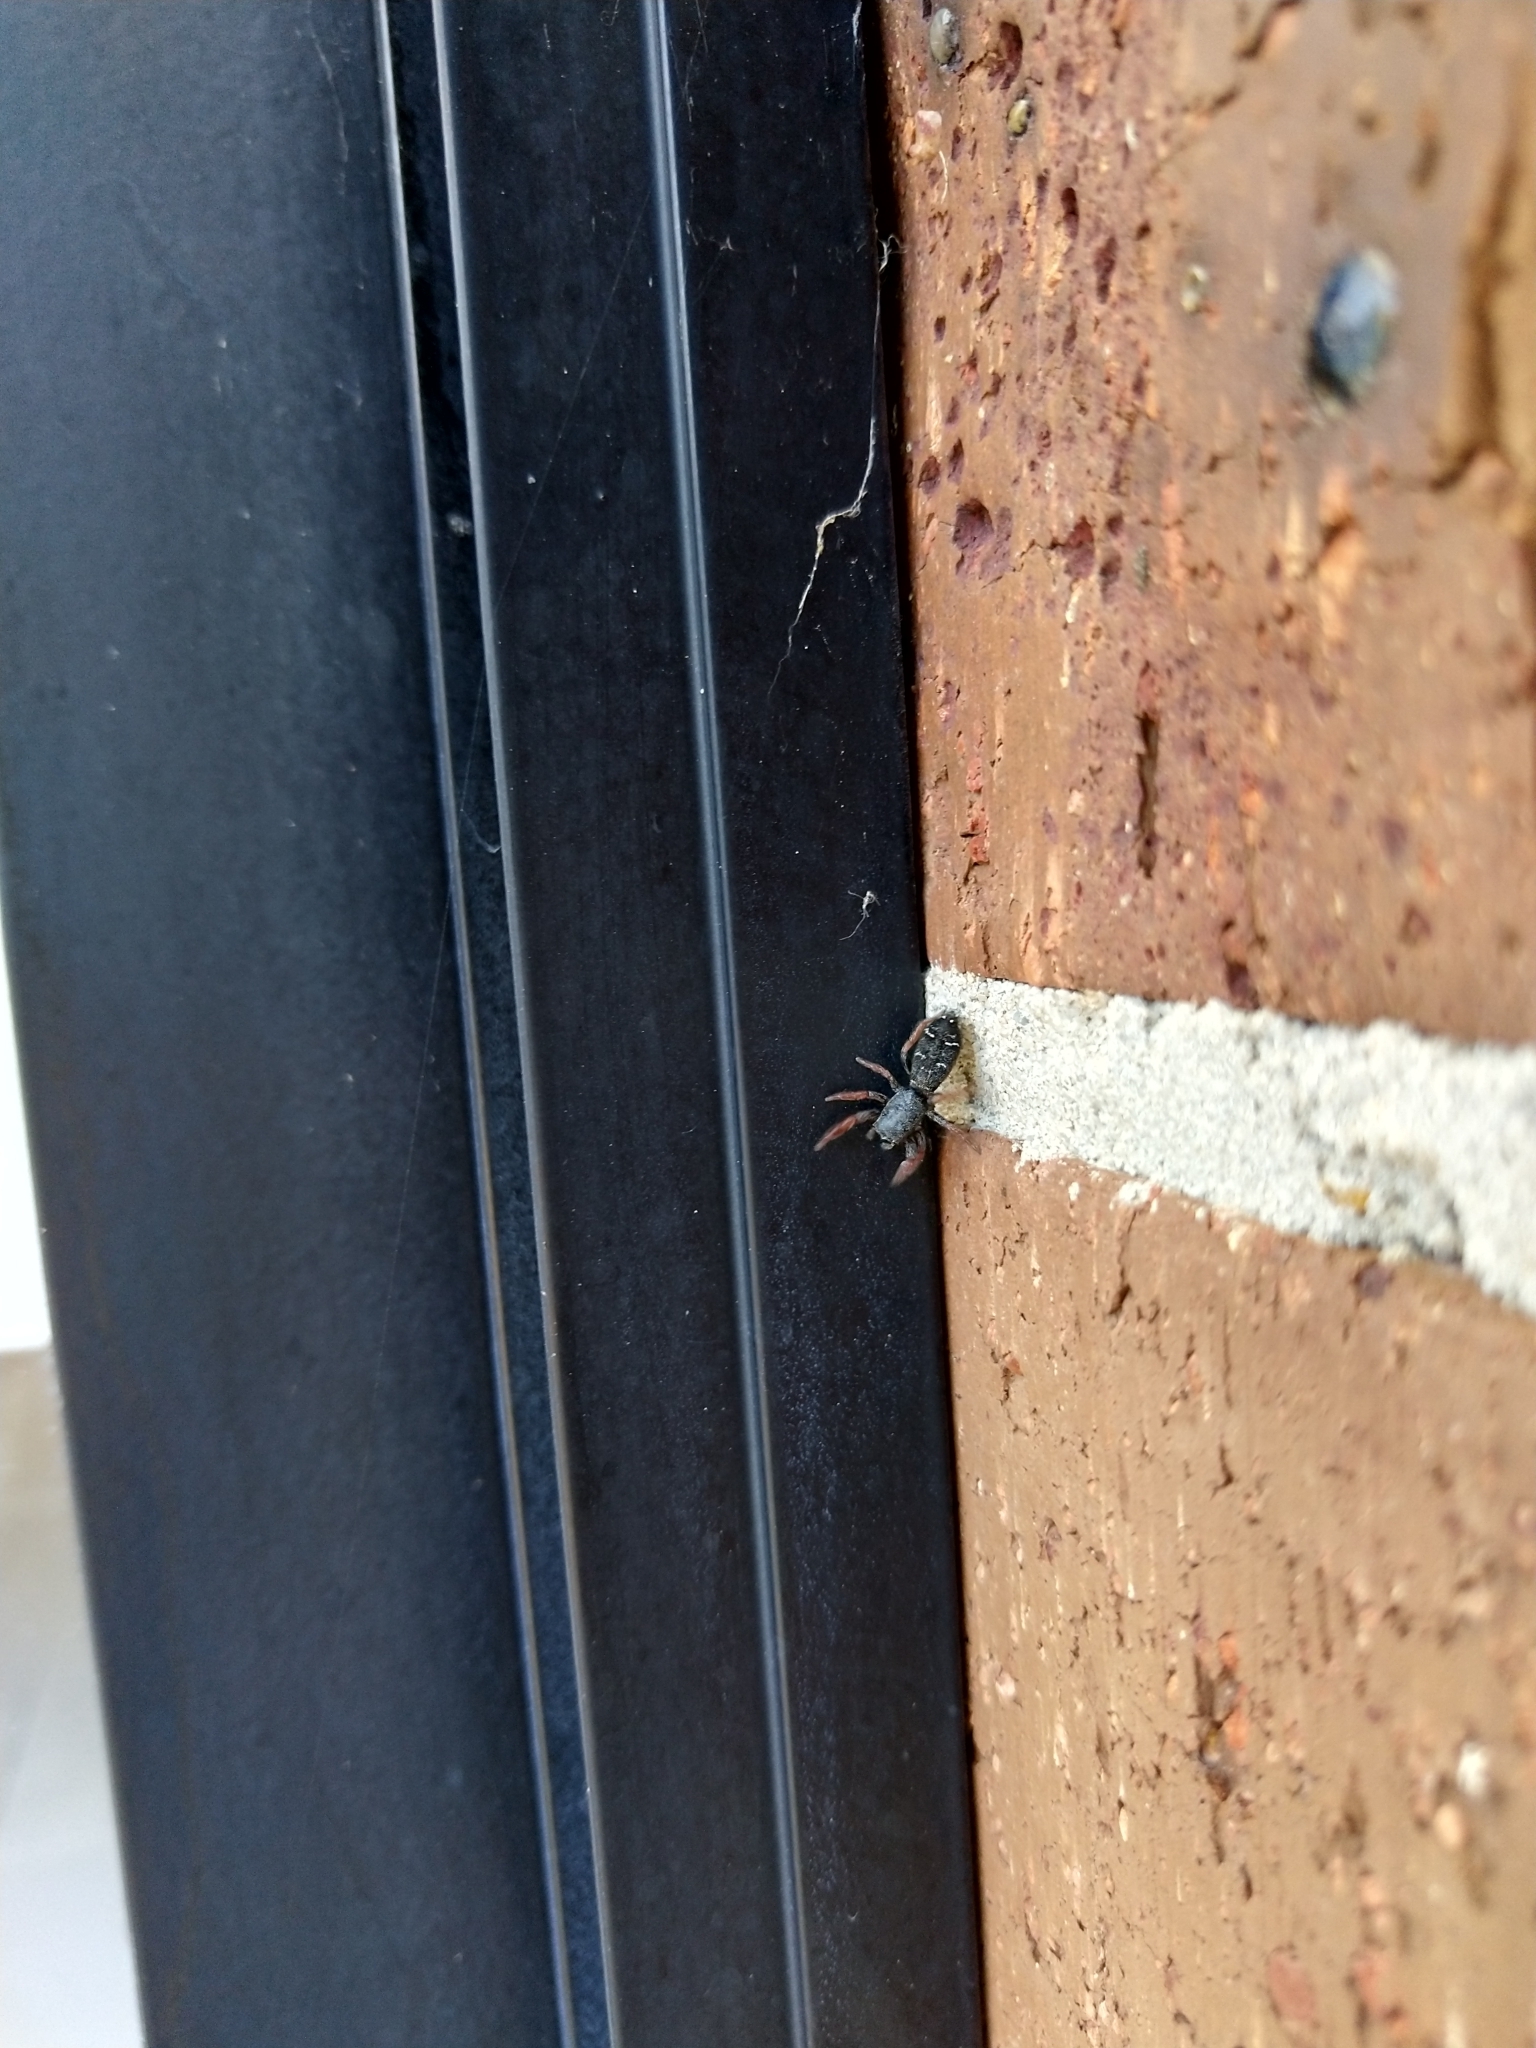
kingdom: Animalia
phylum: Arthropoda
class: Arachnida
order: Araneae
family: Salticidae
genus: Holoplatys
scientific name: Holoplatys invenusta
